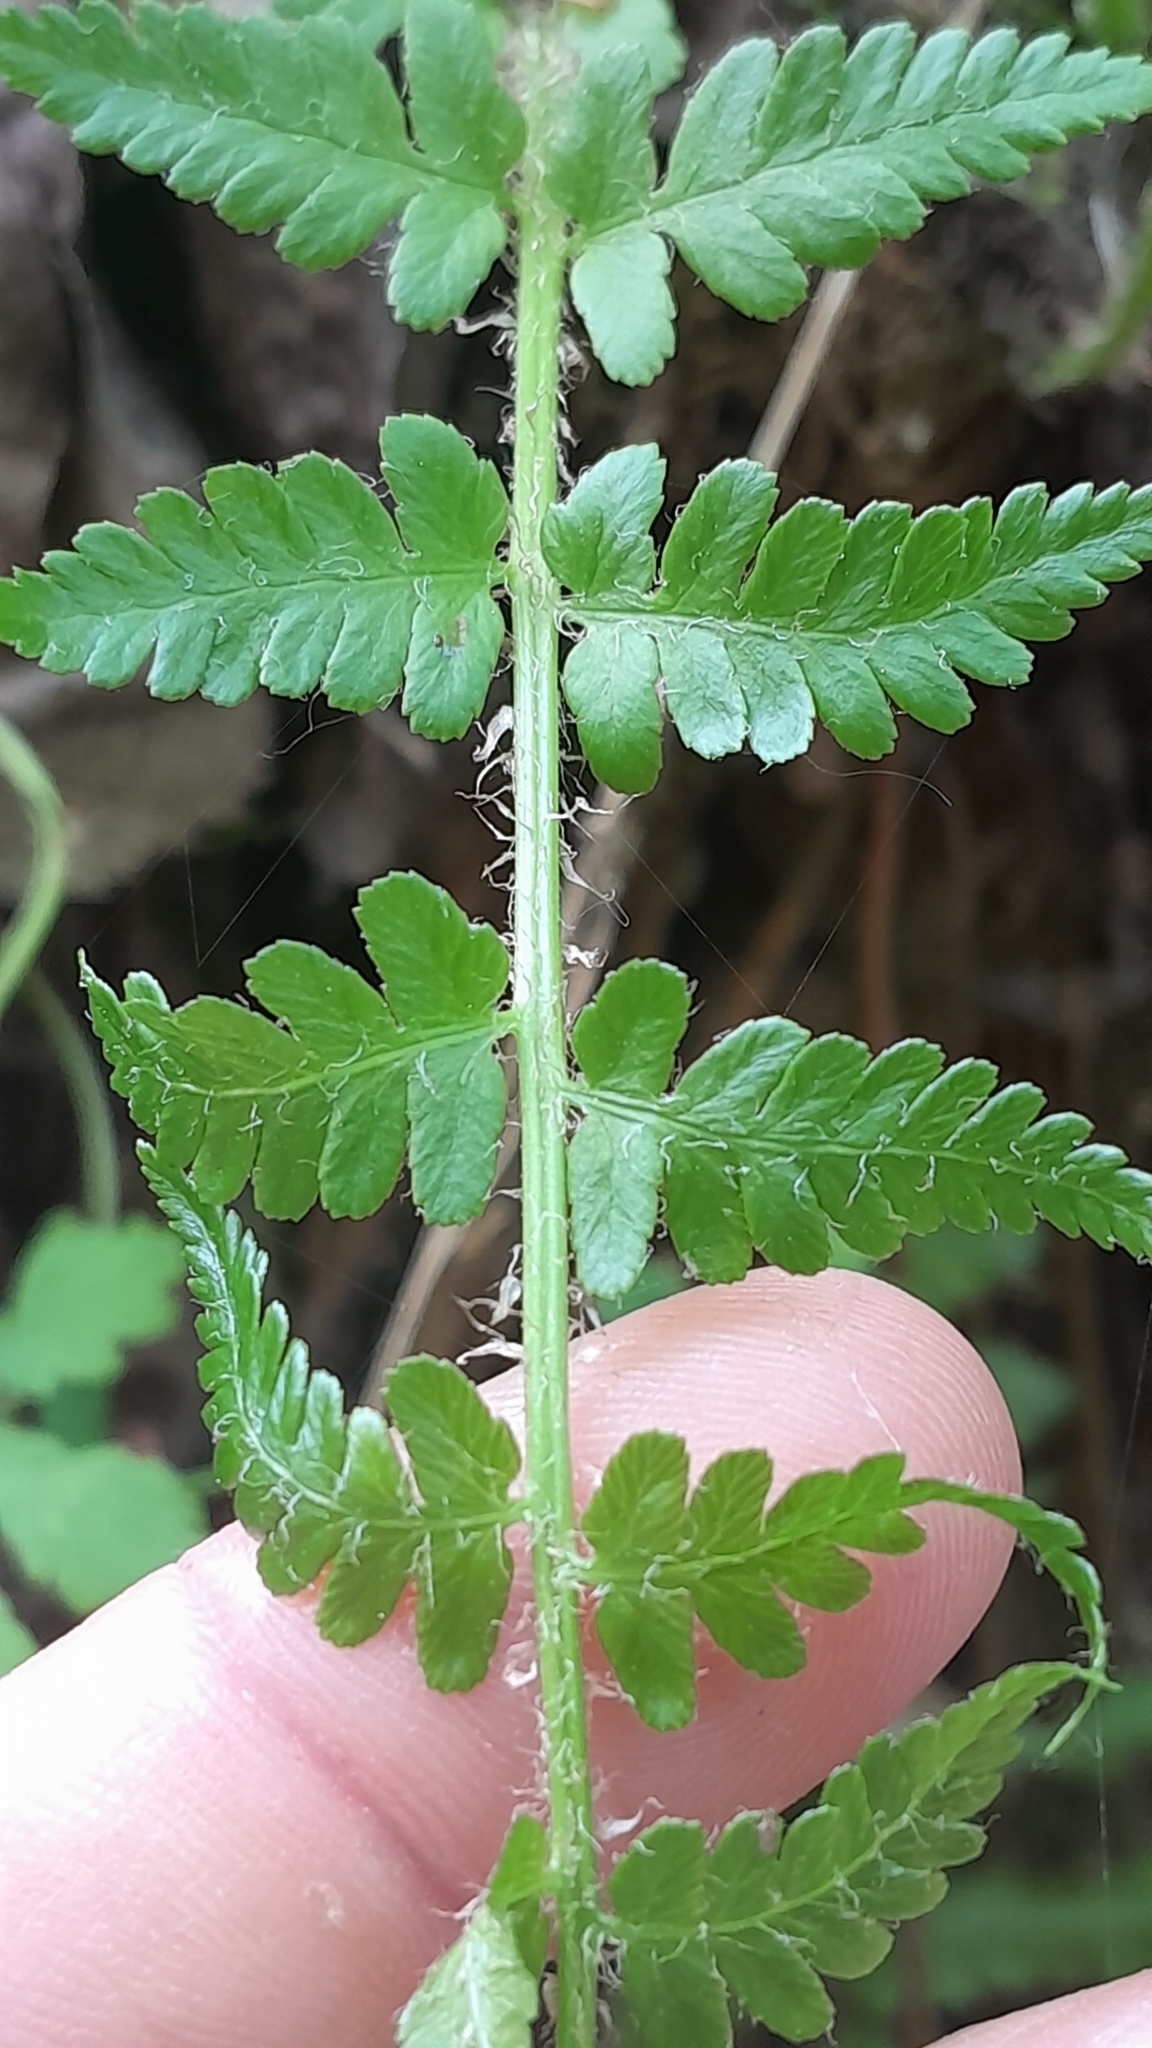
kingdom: Plantae
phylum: Tracheophyta
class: Polypodiopsida
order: Polypodiales
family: Dryopteridaceae
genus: Dryopteris
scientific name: Dryopteris filix-mas
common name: Male fern
